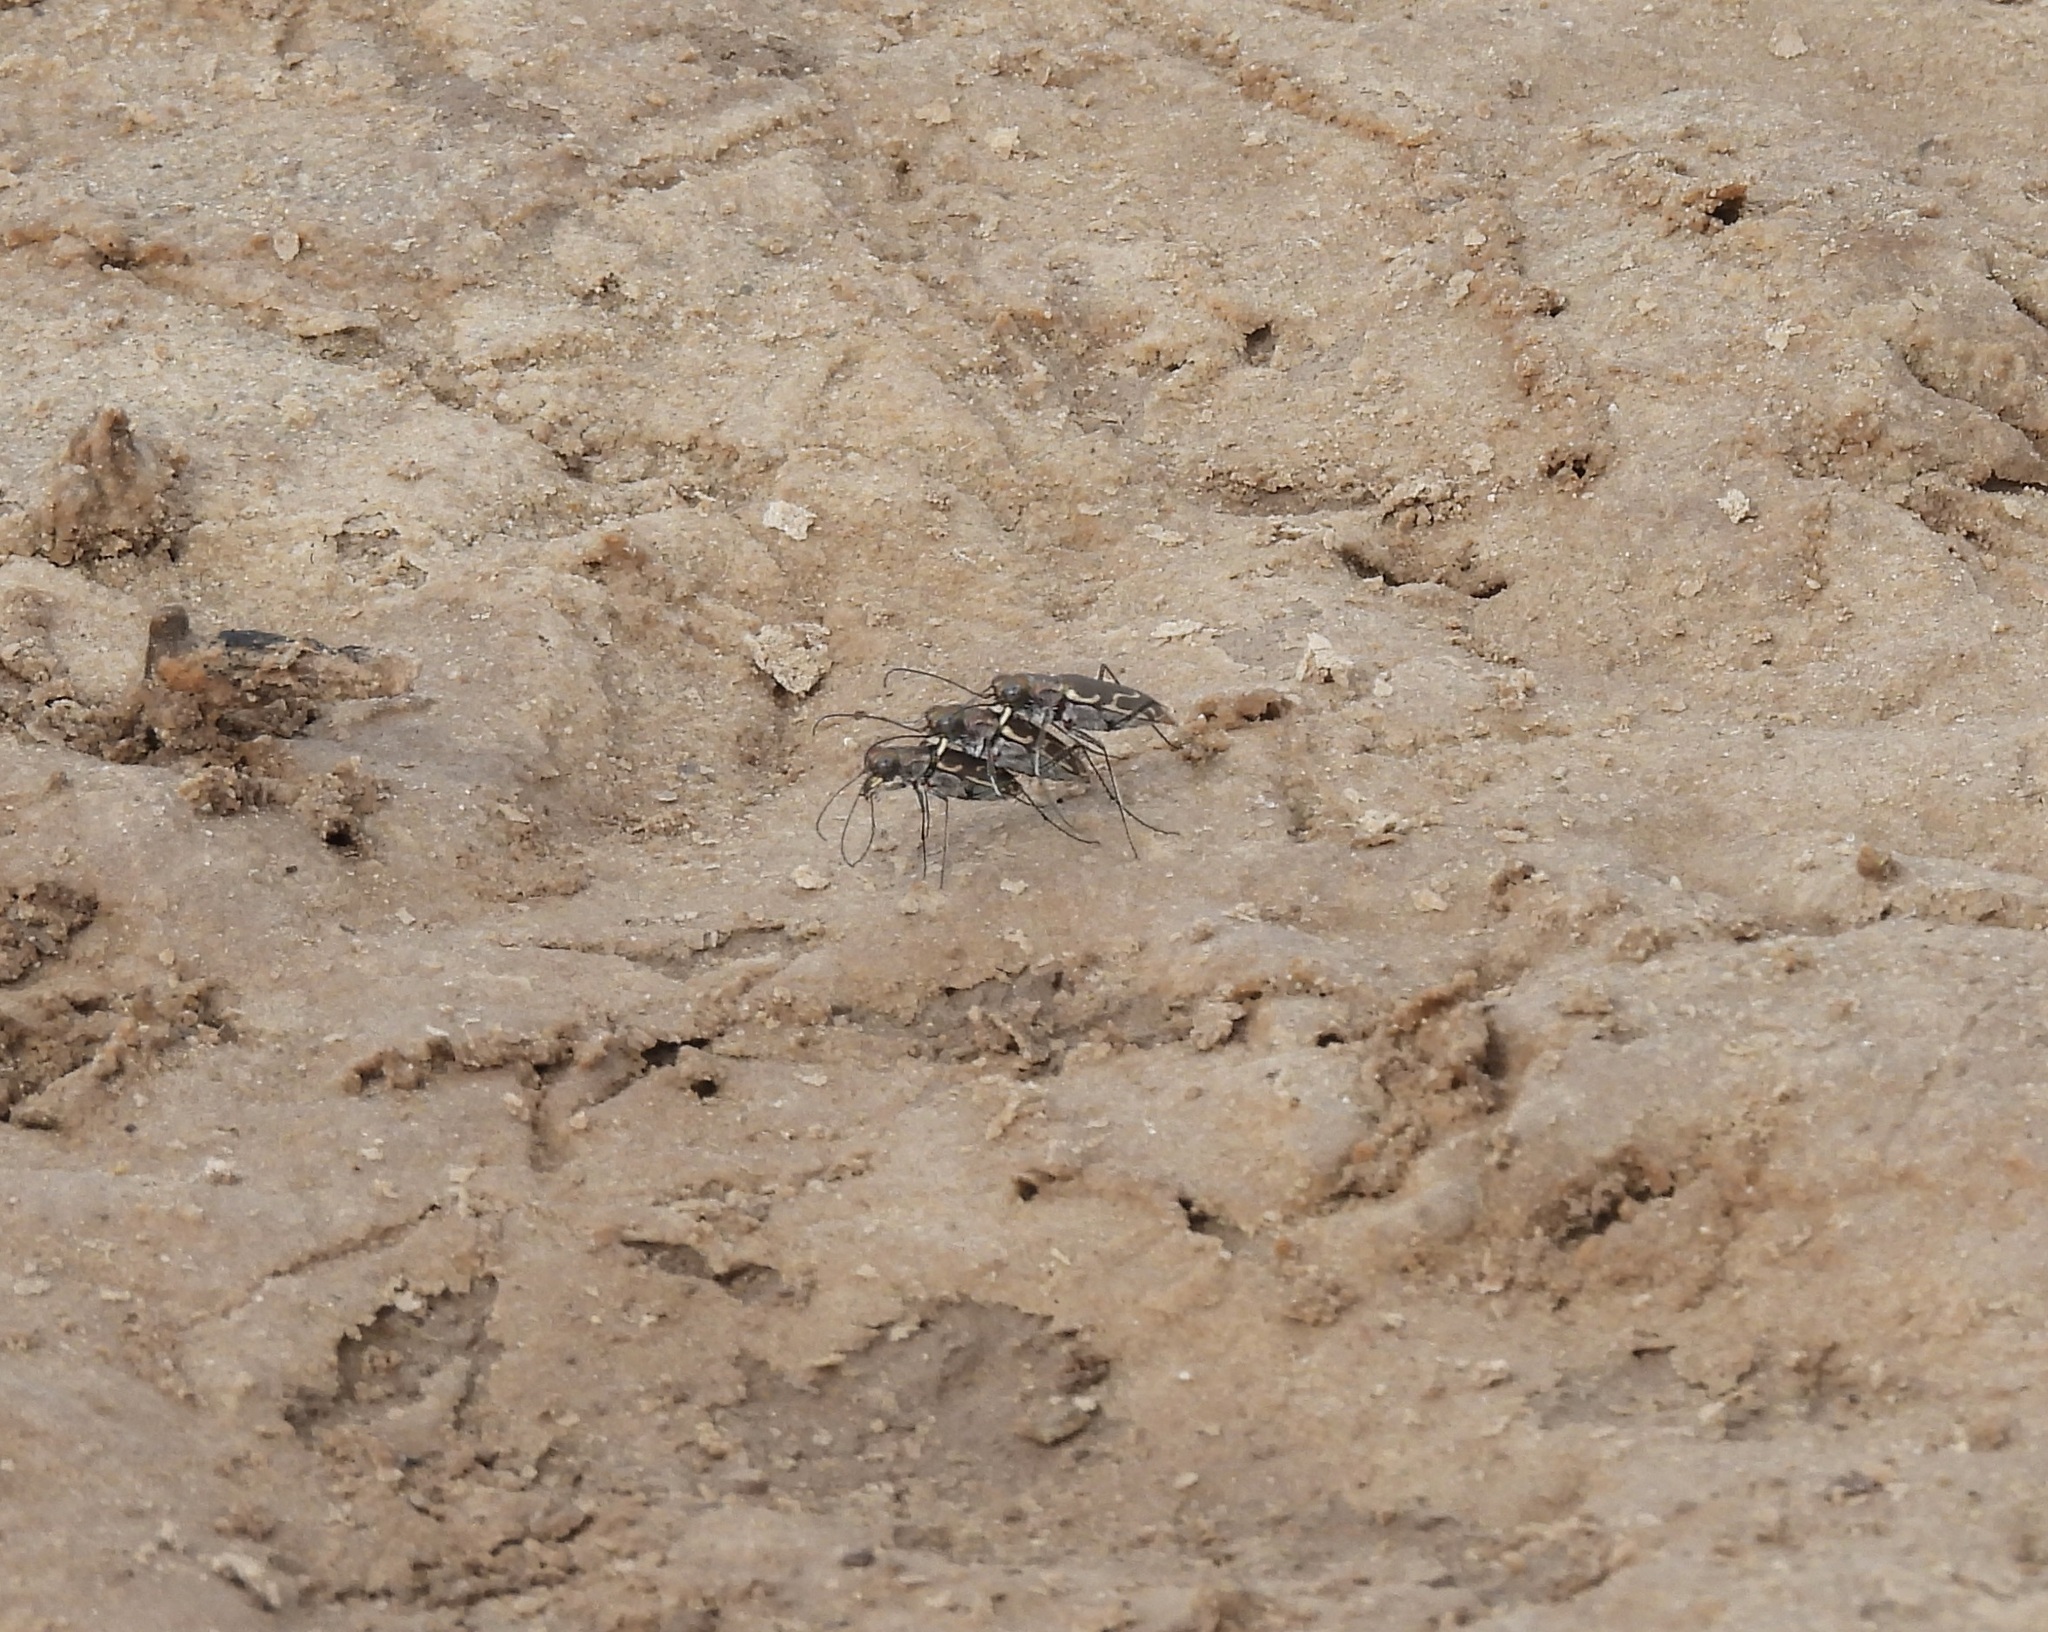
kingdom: Animalia
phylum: Arthropoda
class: Insecta
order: Coleoptera
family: Carabidae
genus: Cicindela
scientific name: Cicindela tenuisignata
